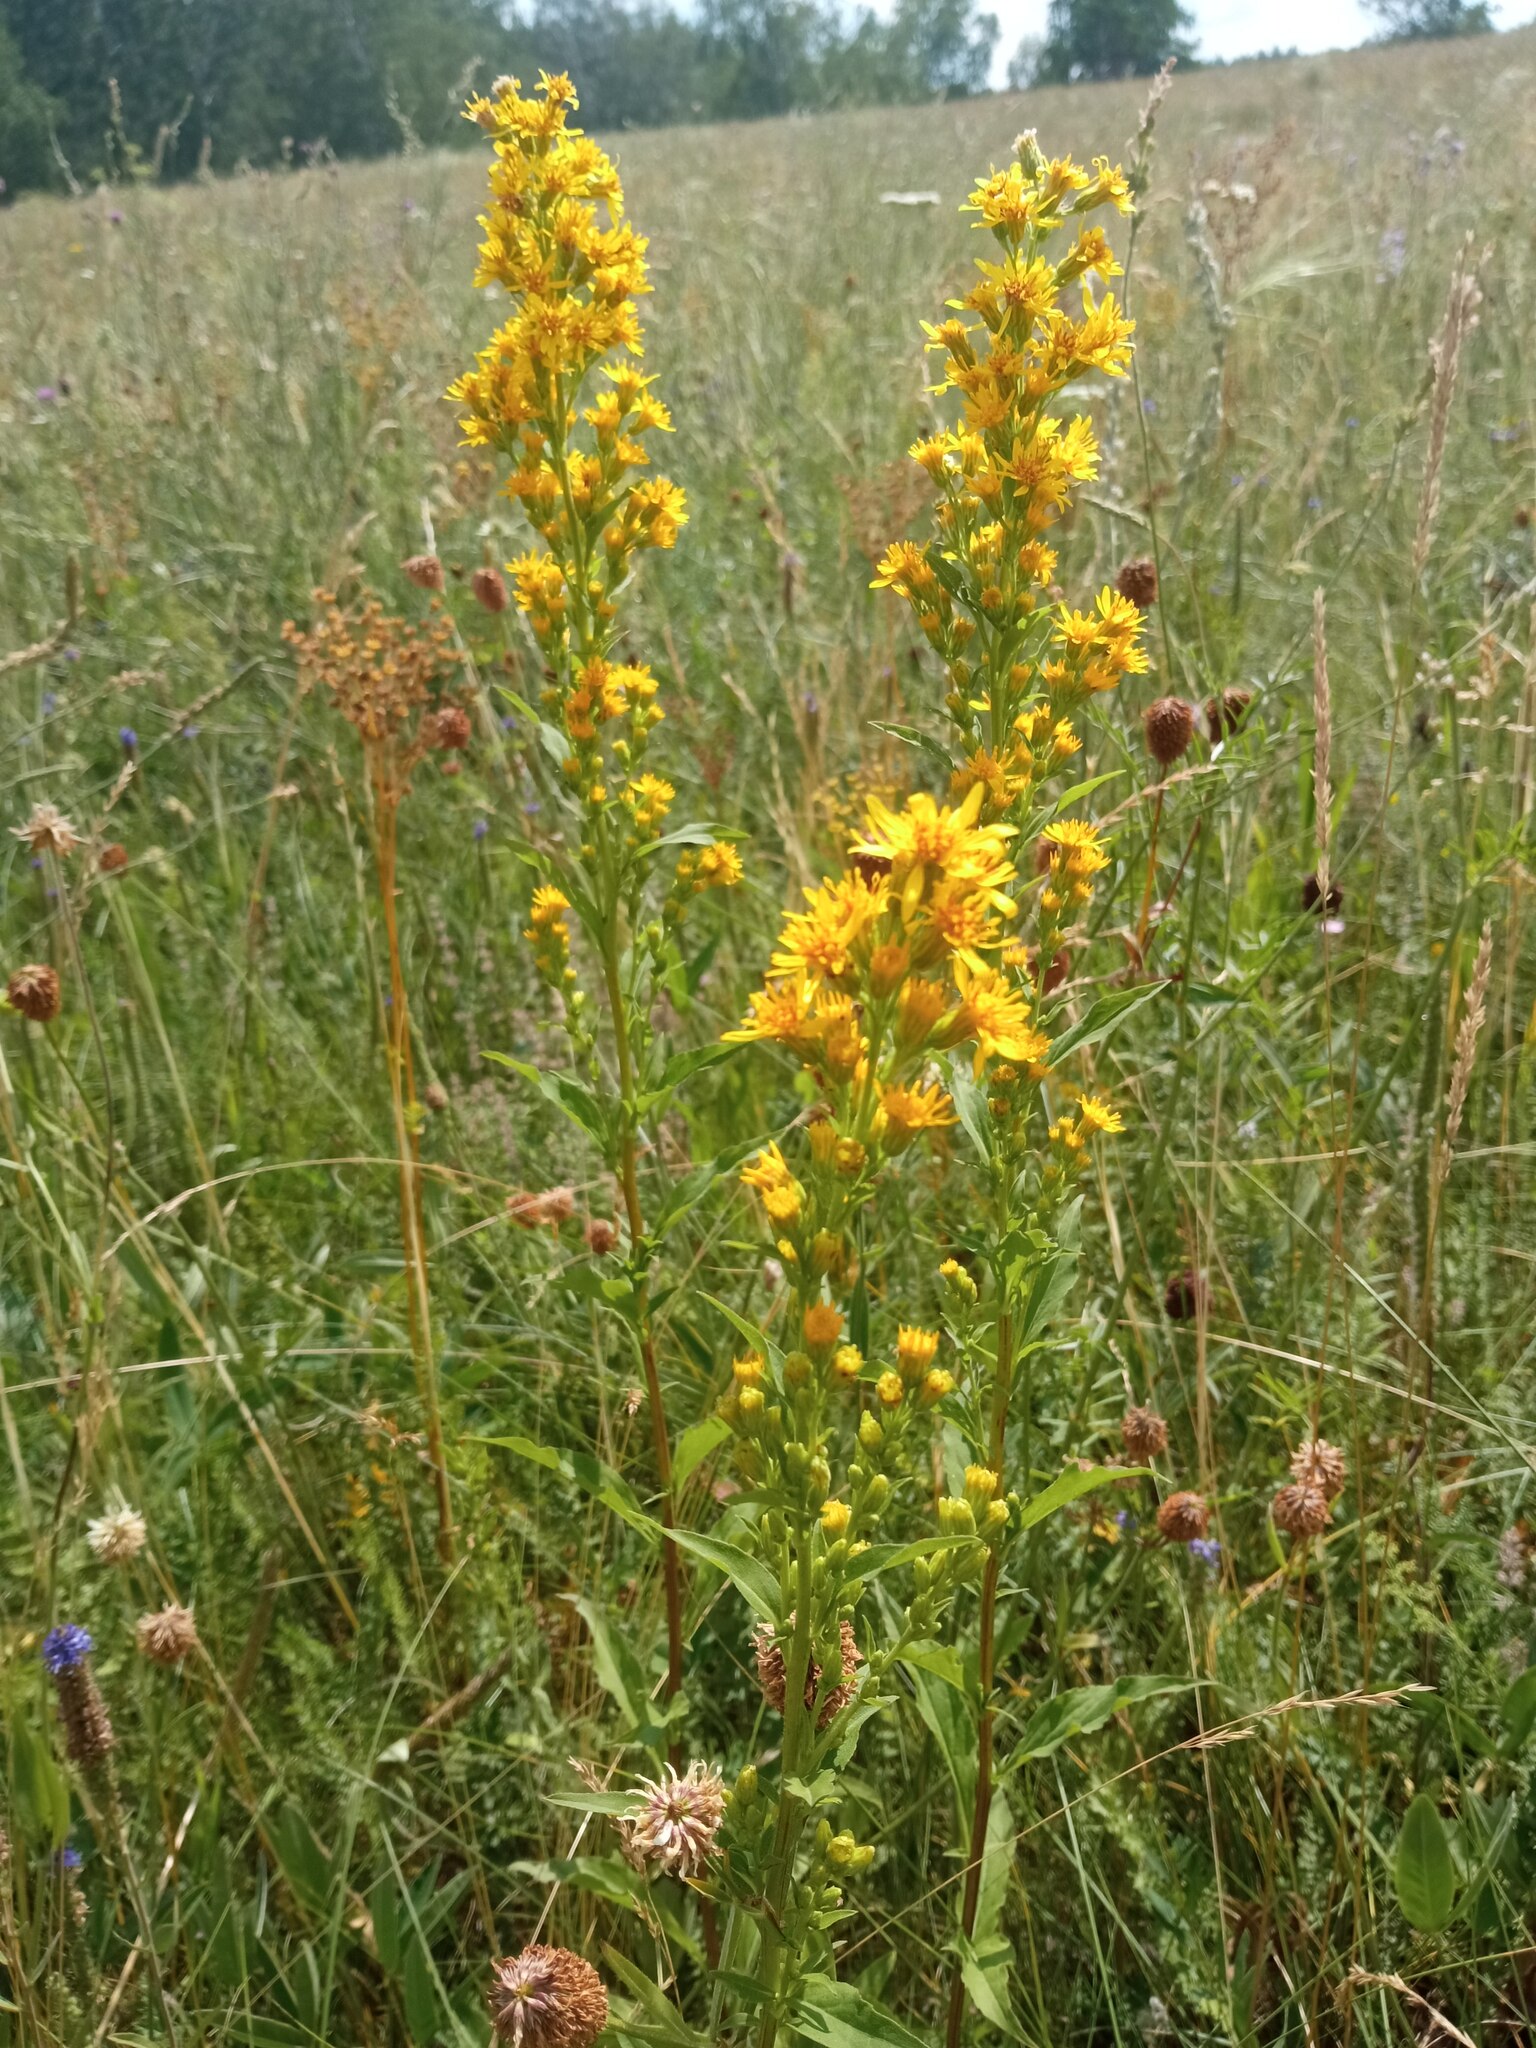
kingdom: Plantae
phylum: Tracheophyta
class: Magnoliopsida
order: Asterales
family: Asteraceae
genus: Solidago
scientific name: Solidago virgaurea
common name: Goldenrod
